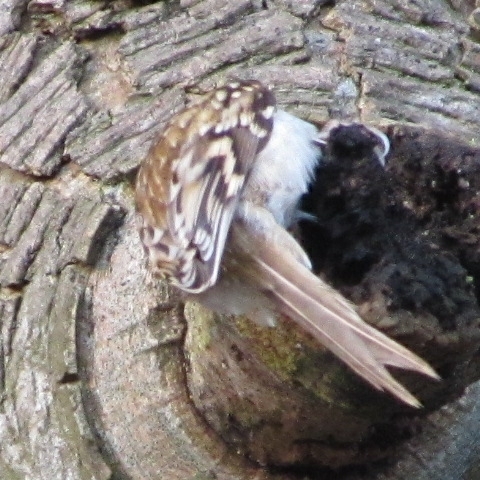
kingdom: Animalia
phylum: Chordata
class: Aves
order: Passeriformes
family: Certhiidae
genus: Certhia
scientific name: Certhia familiaris
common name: Eurasian treecreeper
